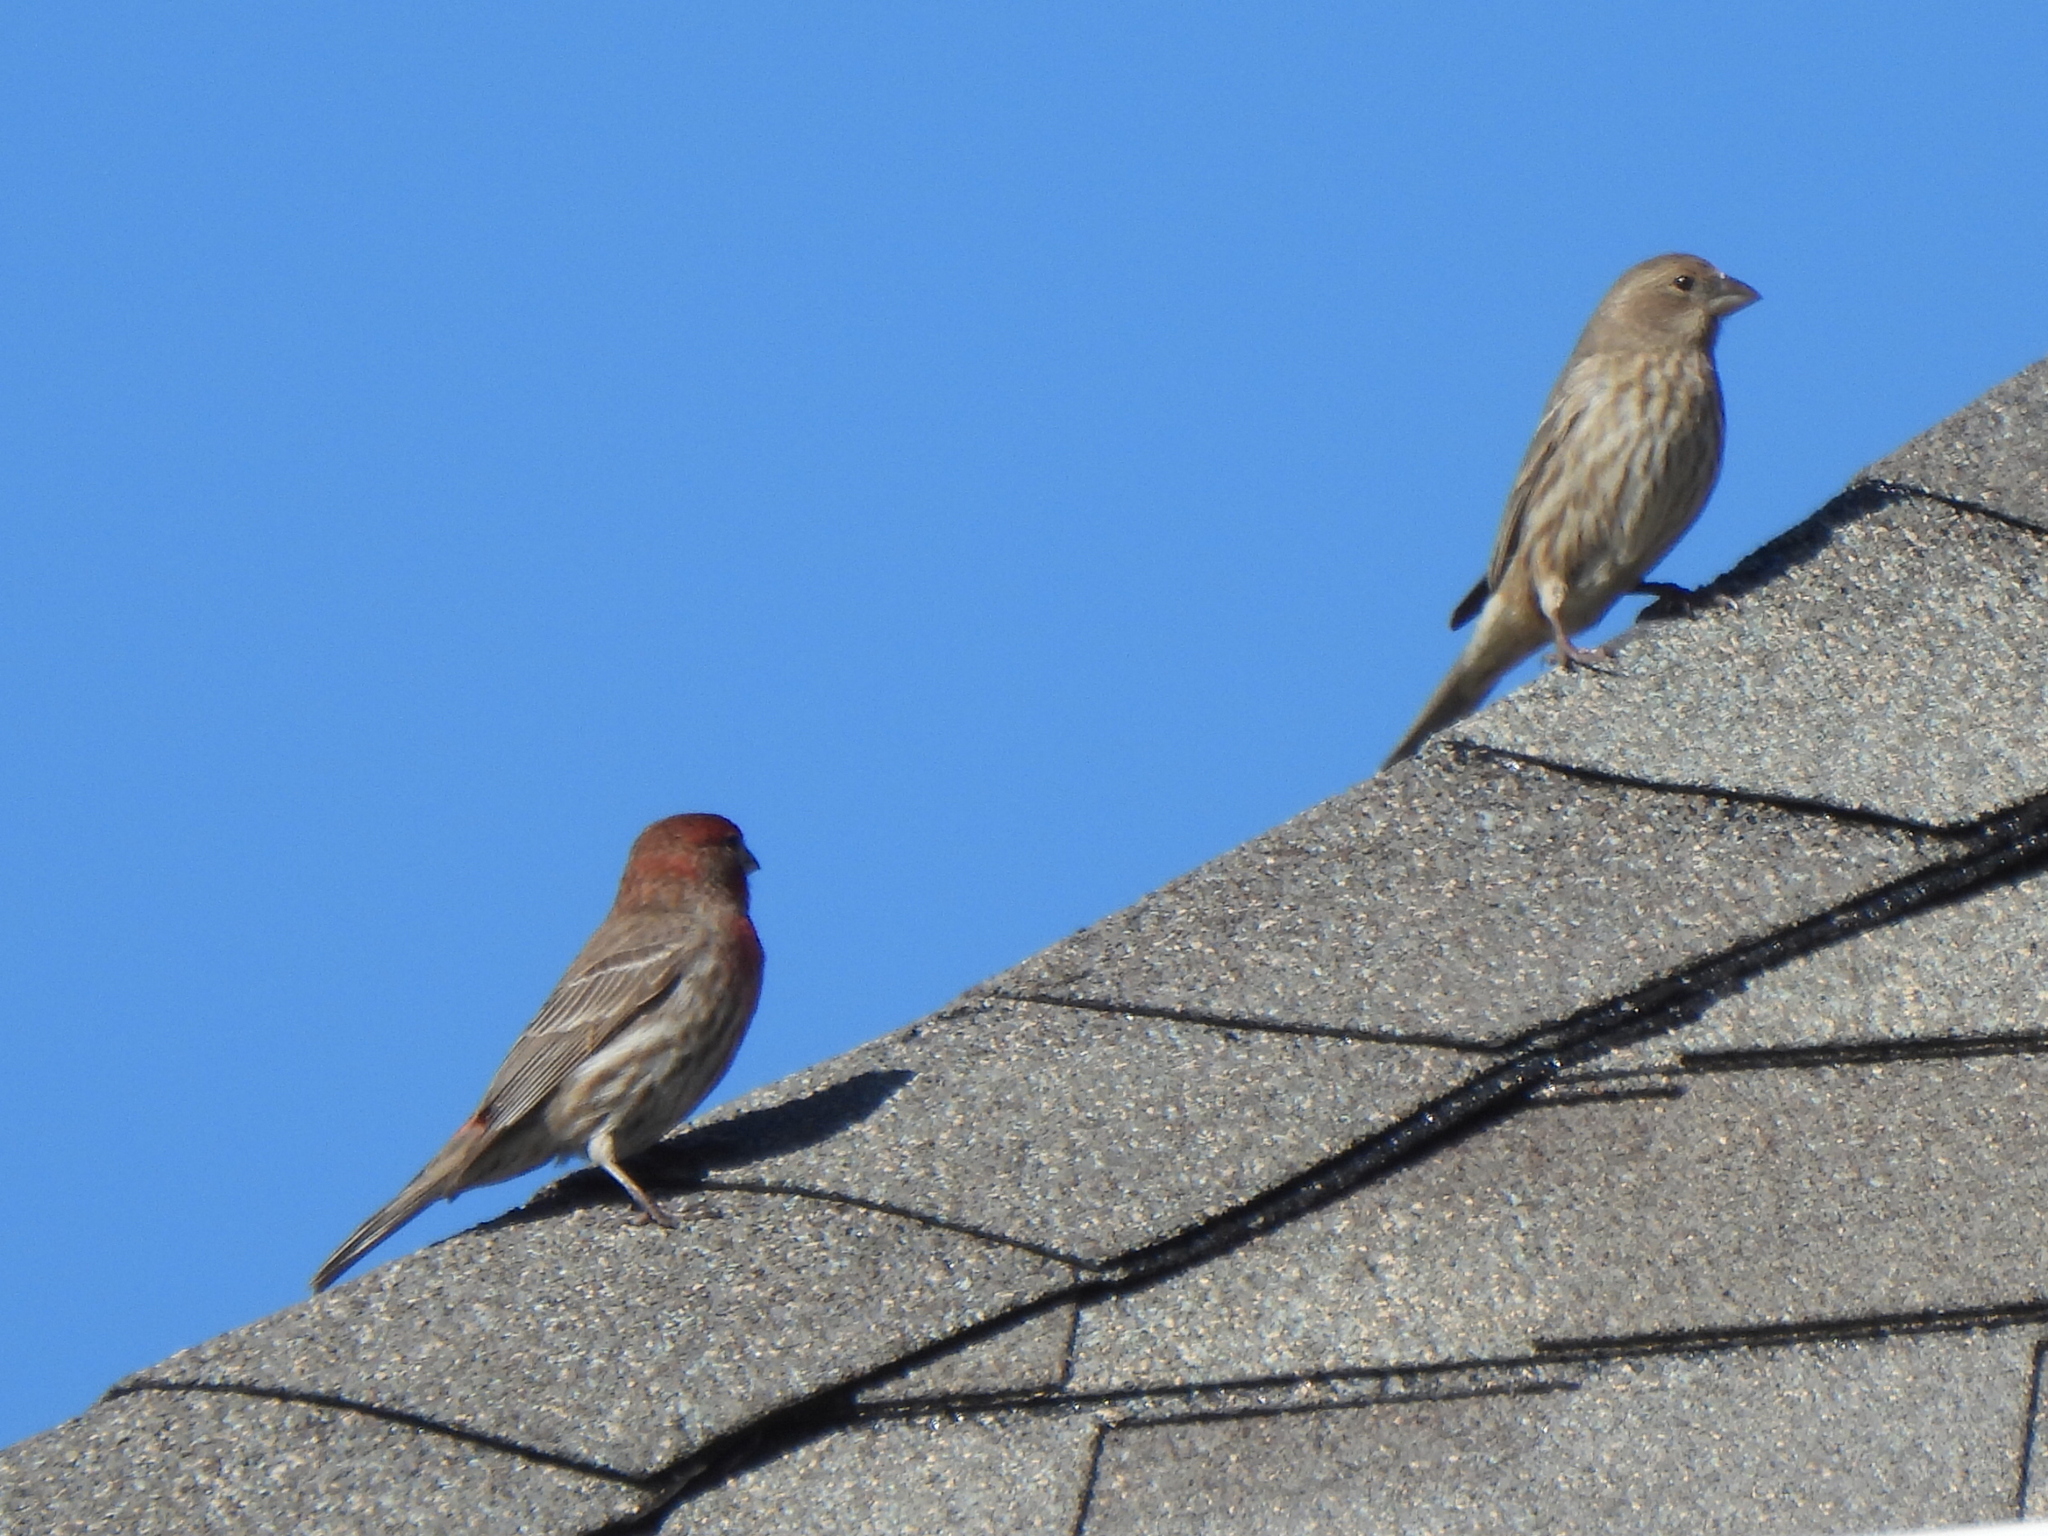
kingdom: Animalia
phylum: Chordata
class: Aves
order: Passeriformes
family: Fringillidae
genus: Haemorhous
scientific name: Haemorhous mexicanus
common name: House finch
